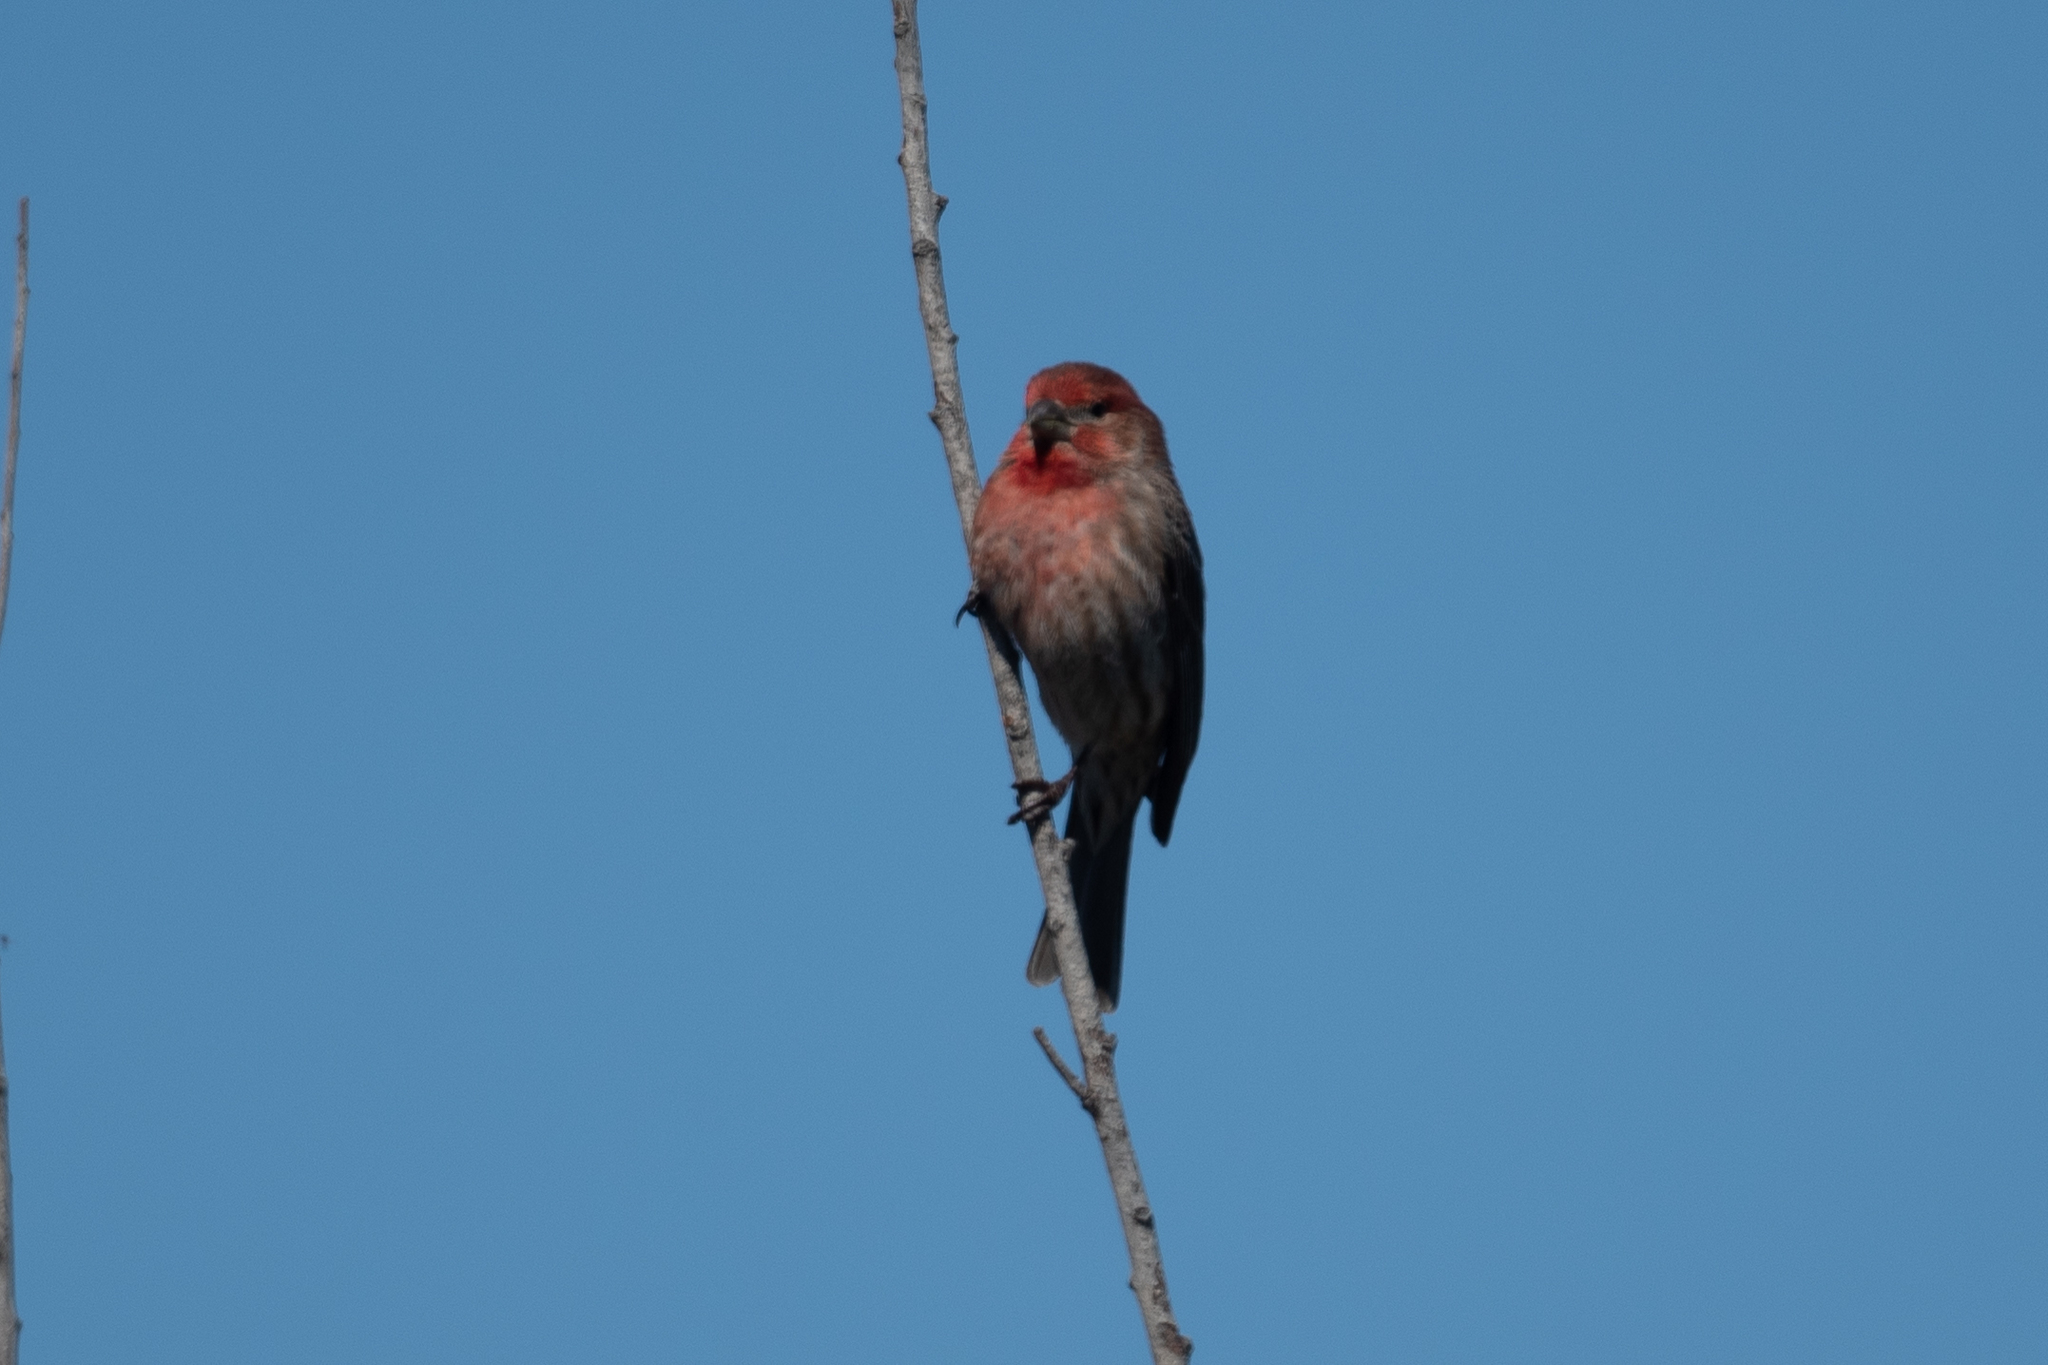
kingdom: Animalia
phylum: Chordata
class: Aves
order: Passeriformes
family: Fringillidae
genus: Haemorhous
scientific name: Haemorhous mexicanus
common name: House finch
